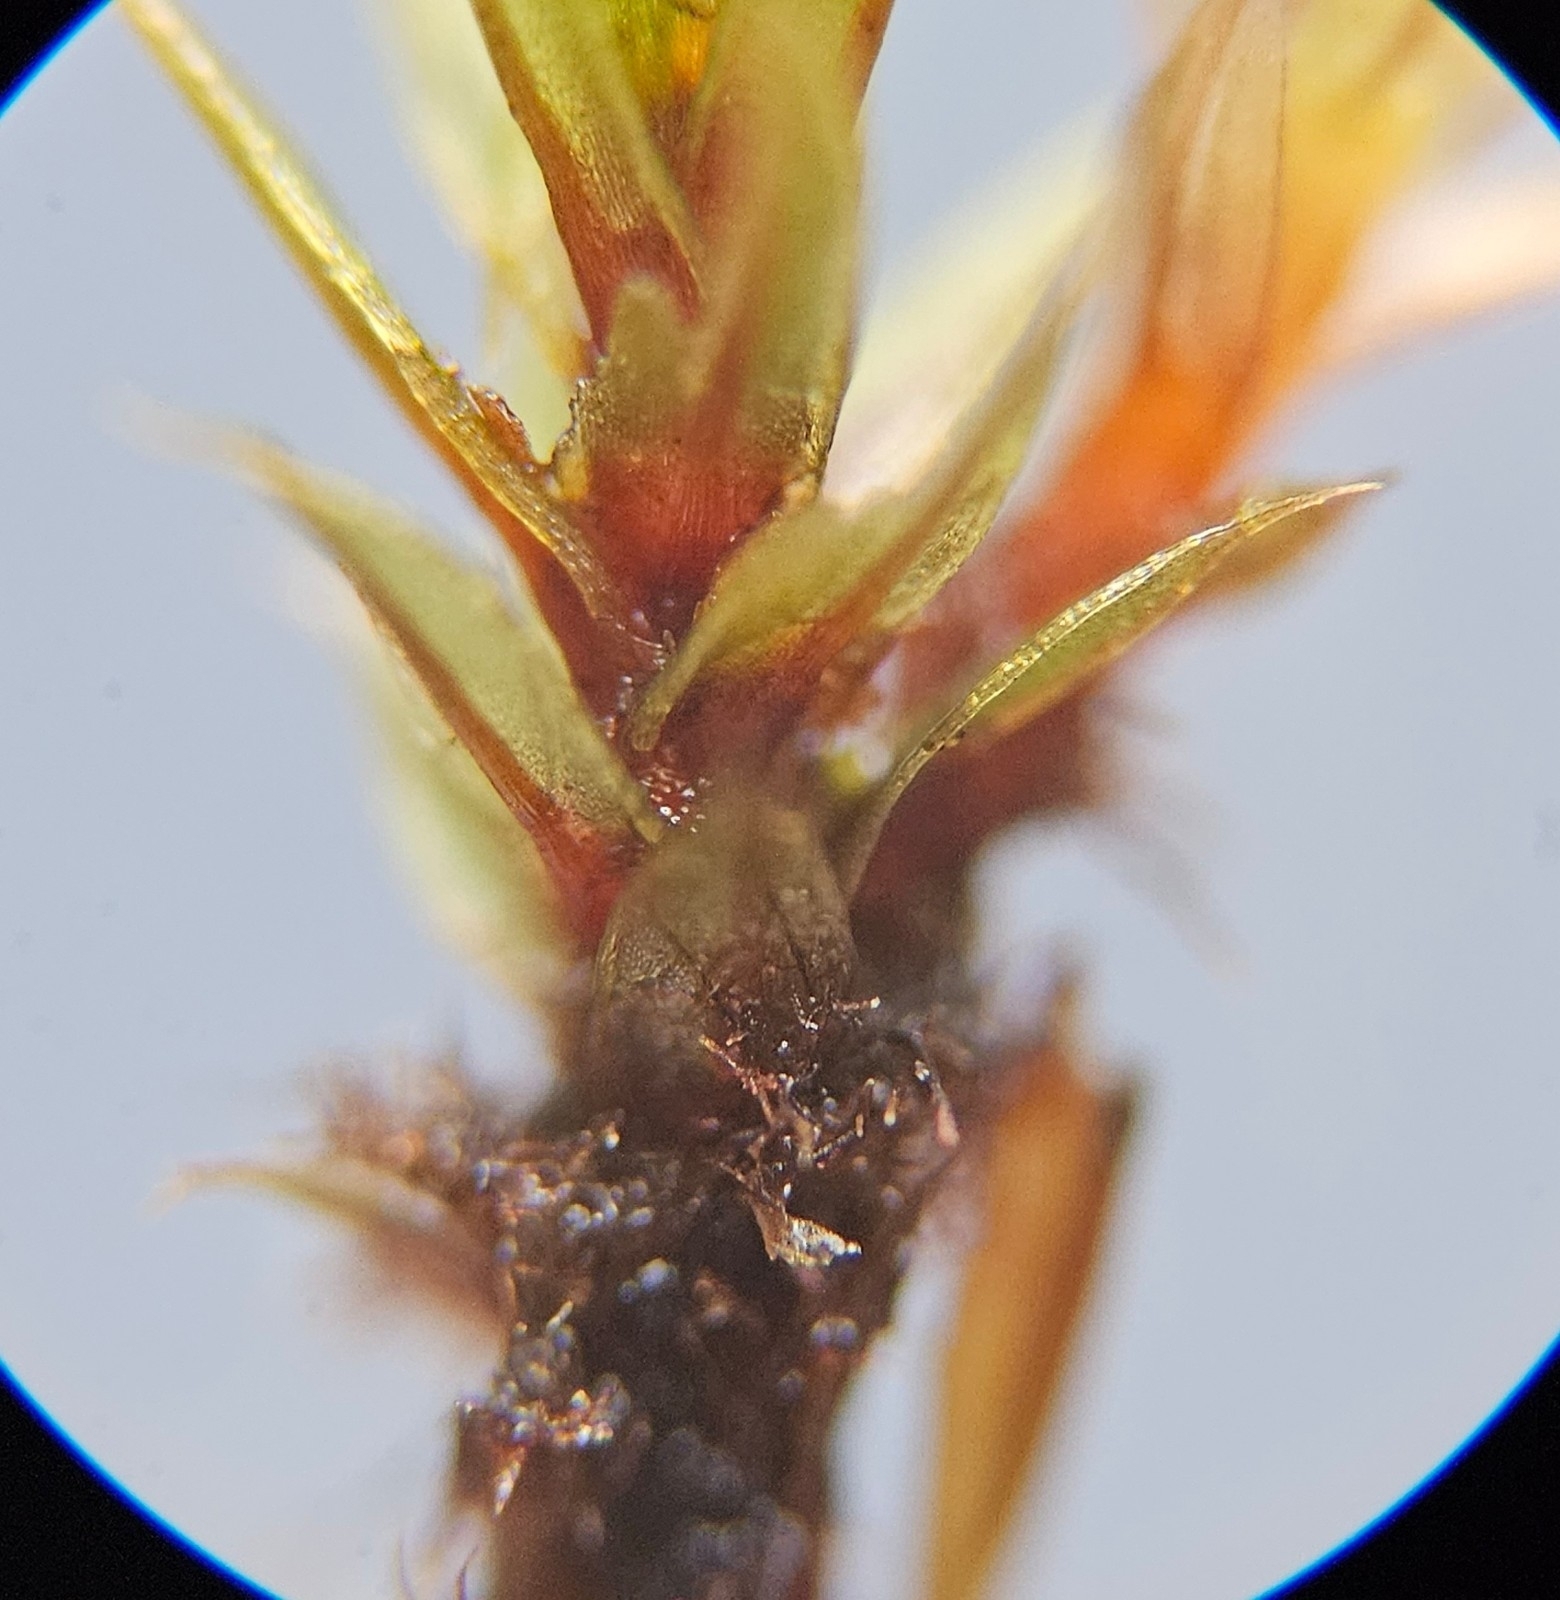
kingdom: Plantae
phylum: Bryophyta
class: Bryopsida
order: Bryales
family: Bryaceae
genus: Ptychostomum
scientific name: Ptychostomum pseudotriquetrum
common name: Long-leaved thread moss
